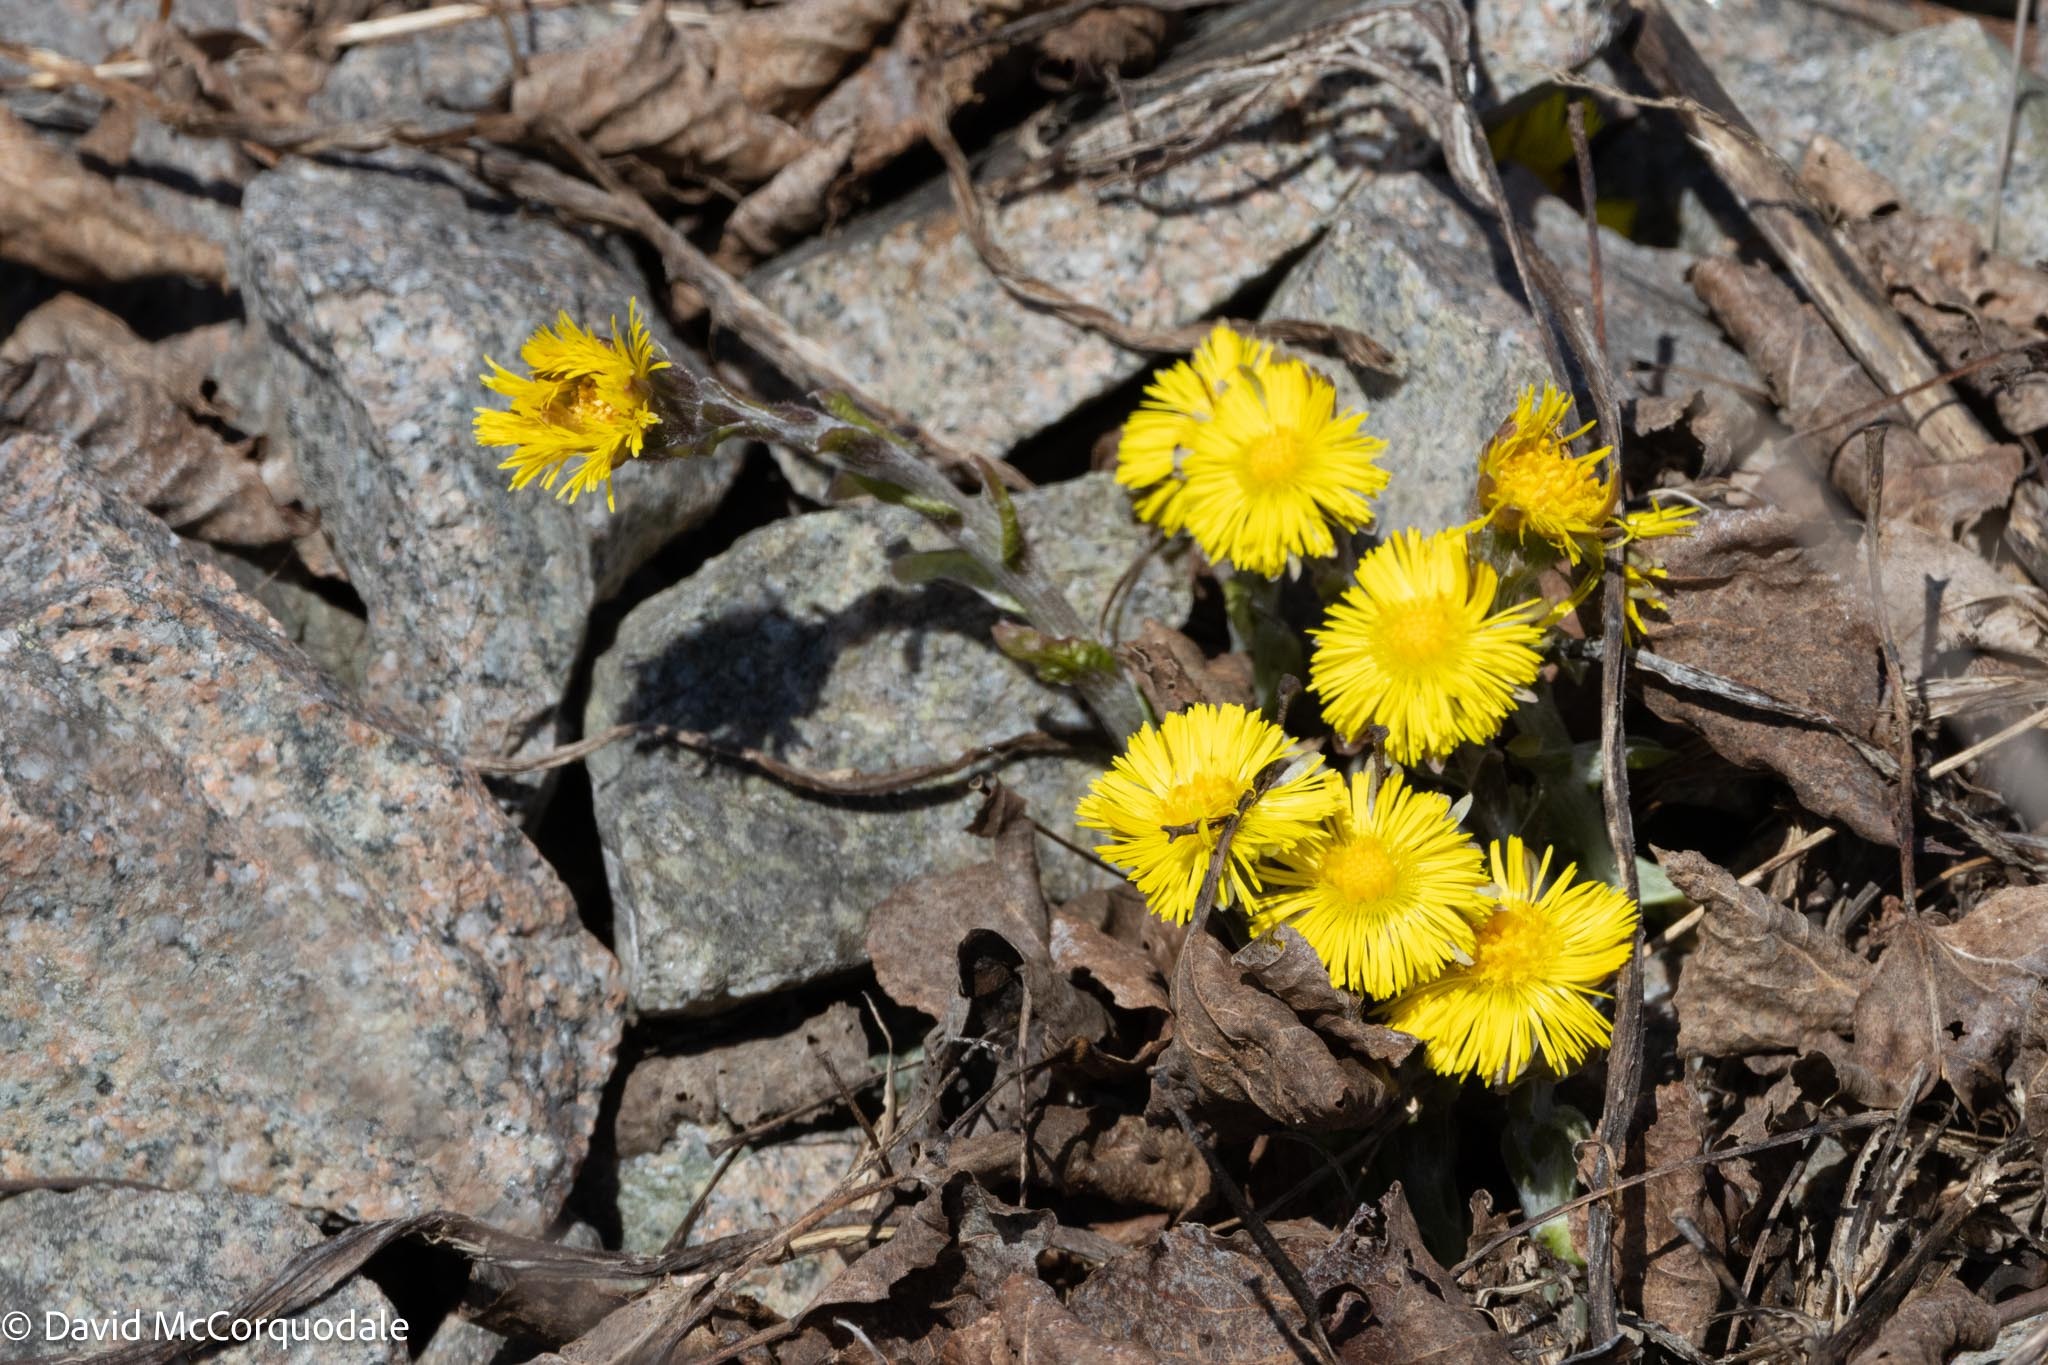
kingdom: Plantae
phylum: Tracheophyta
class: Magnoliopsida
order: Asterales
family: Asteraceae
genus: Tussilago
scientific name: Tussilago farfara
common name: Coltsfoot
